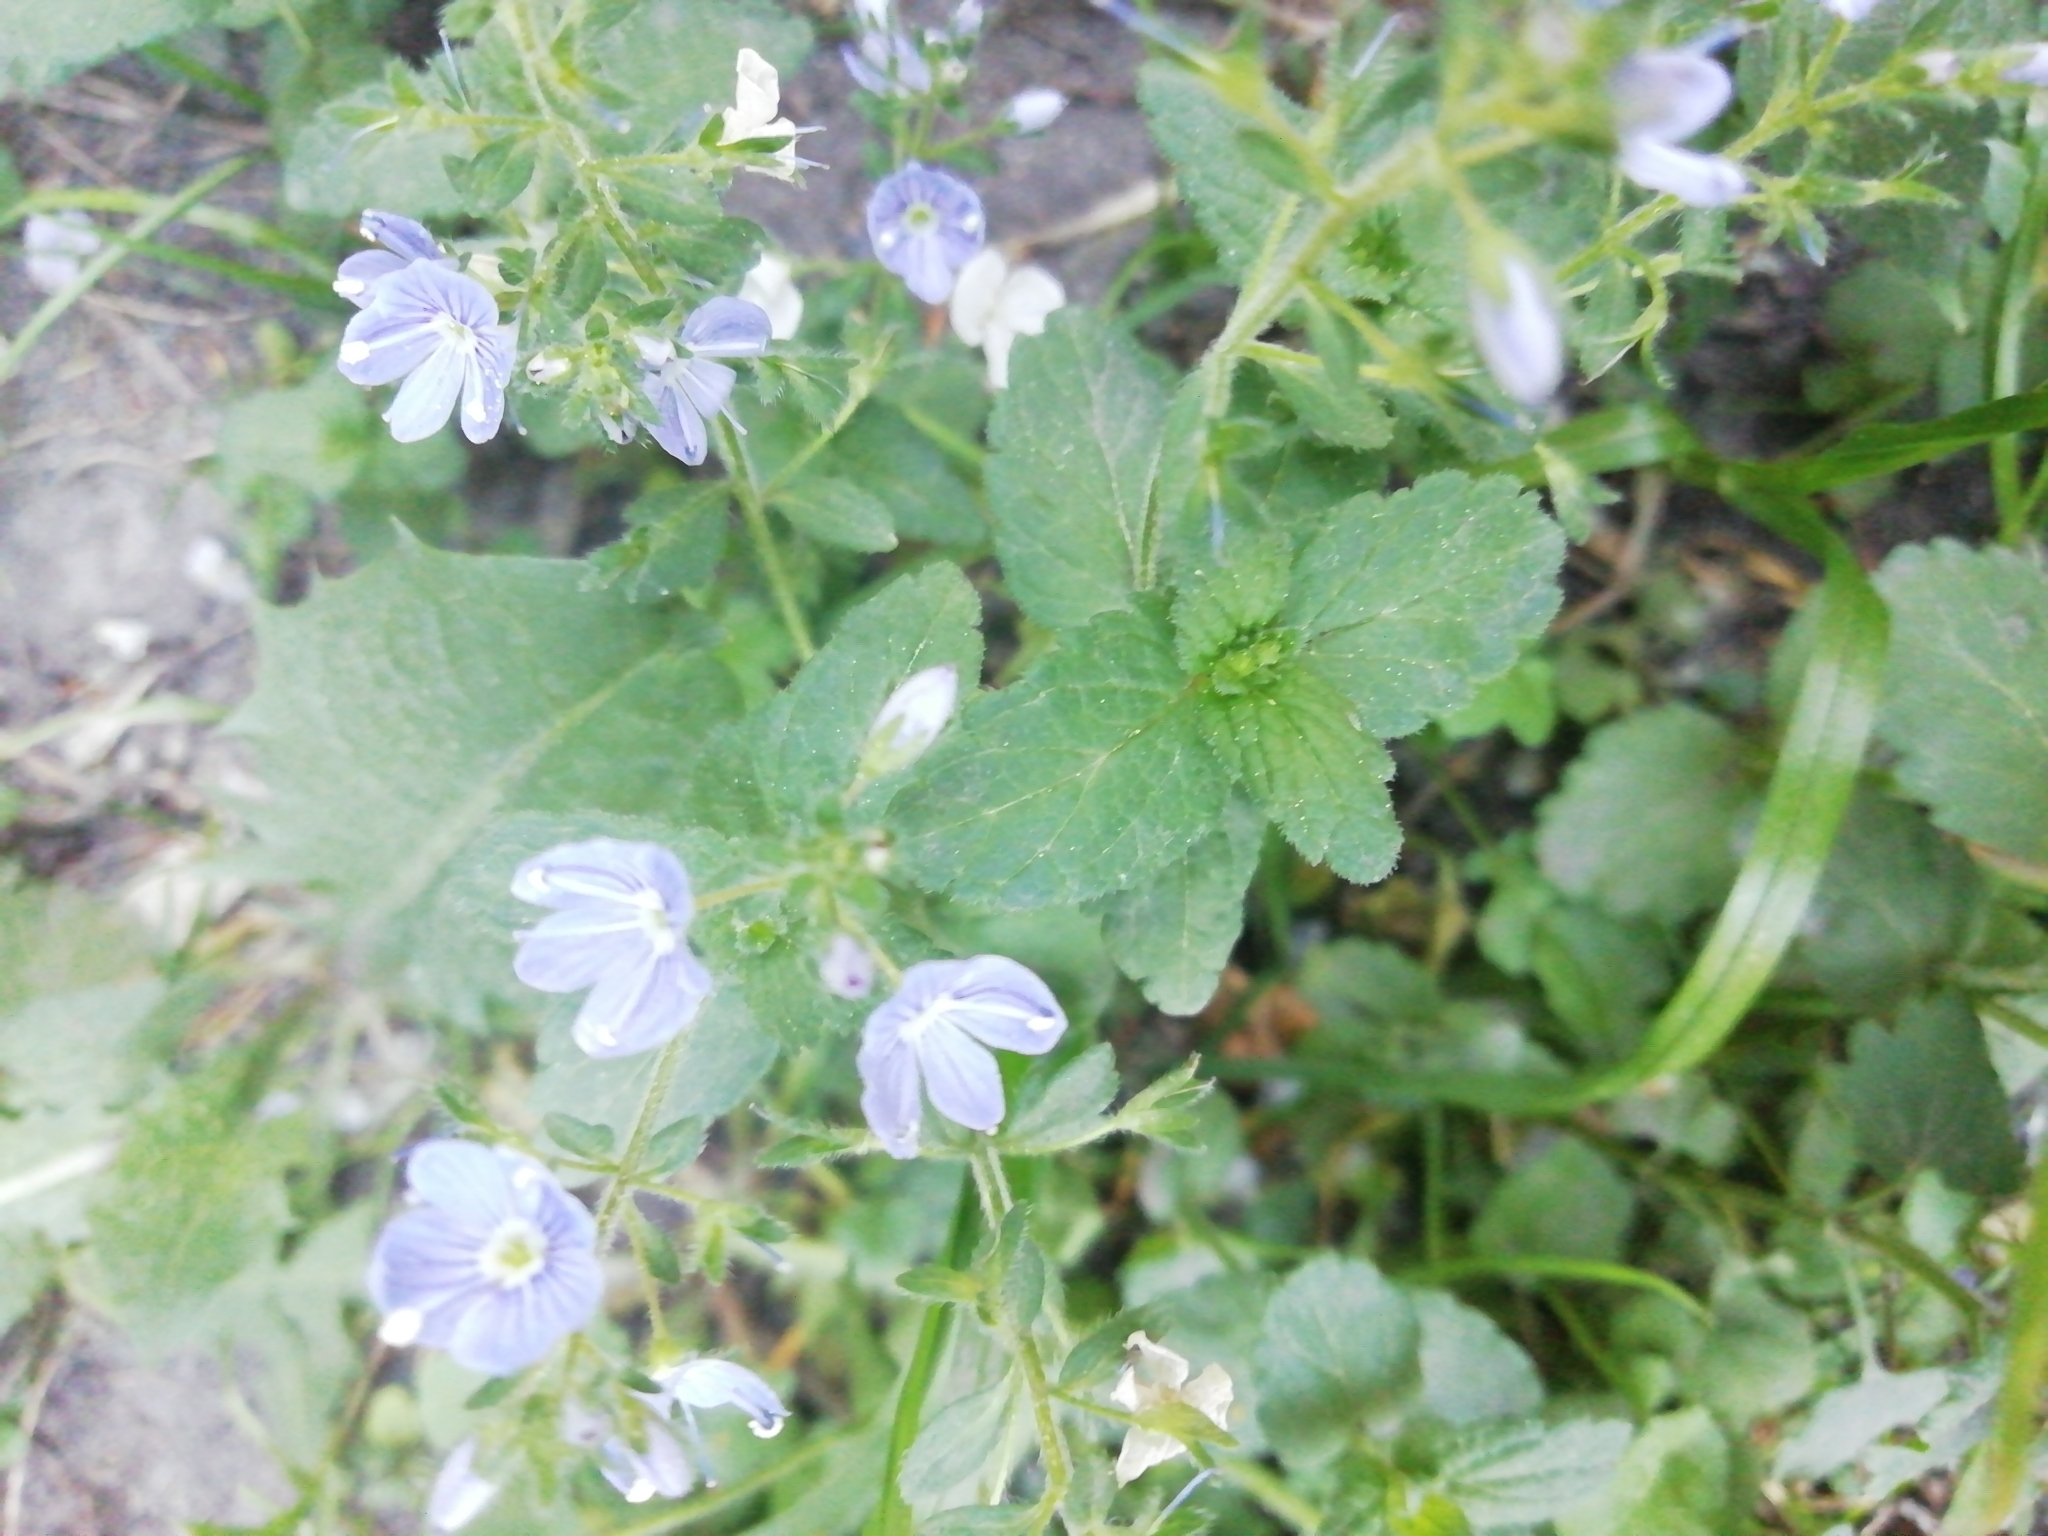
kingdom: Plantae
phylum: Tracheophyta
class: Magnoliopsida
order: Lamiales
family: Plantaginaceae
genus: Veronica
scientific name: Veronica chamaedrys
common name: Germander speedwell
